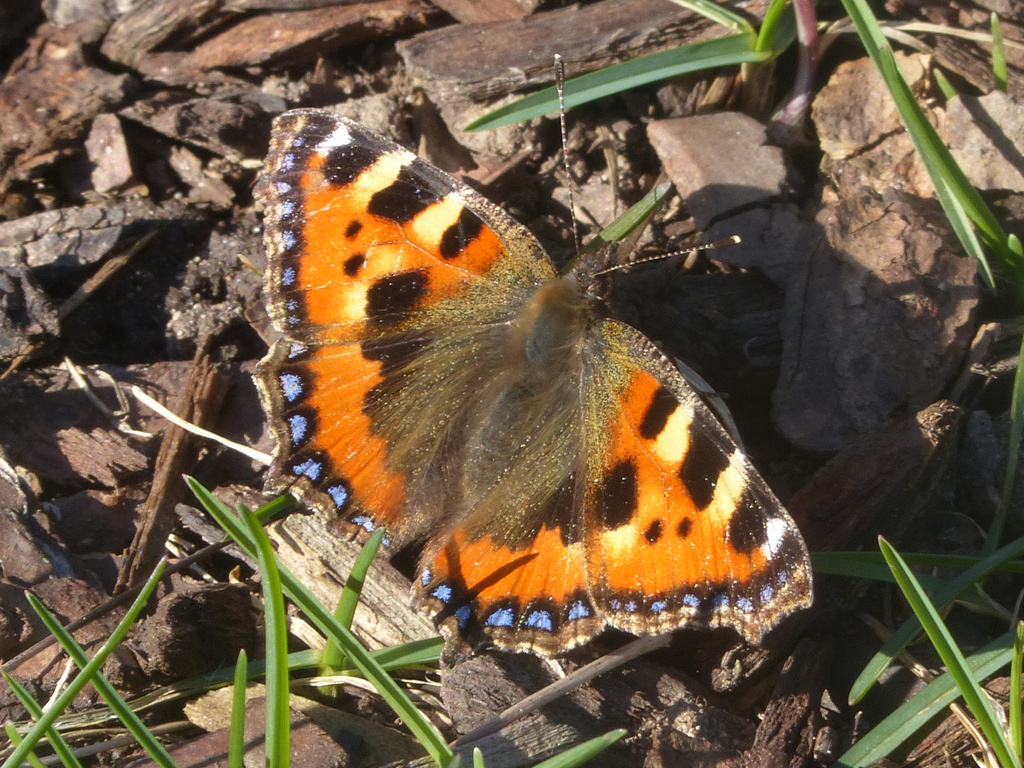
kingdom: Animalia
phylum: Arthropoda
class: Insecta
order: Lepidoptera
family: Nymphalidae
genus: Aglais
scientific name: Aglais urticae
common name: Small tortoiseshell
